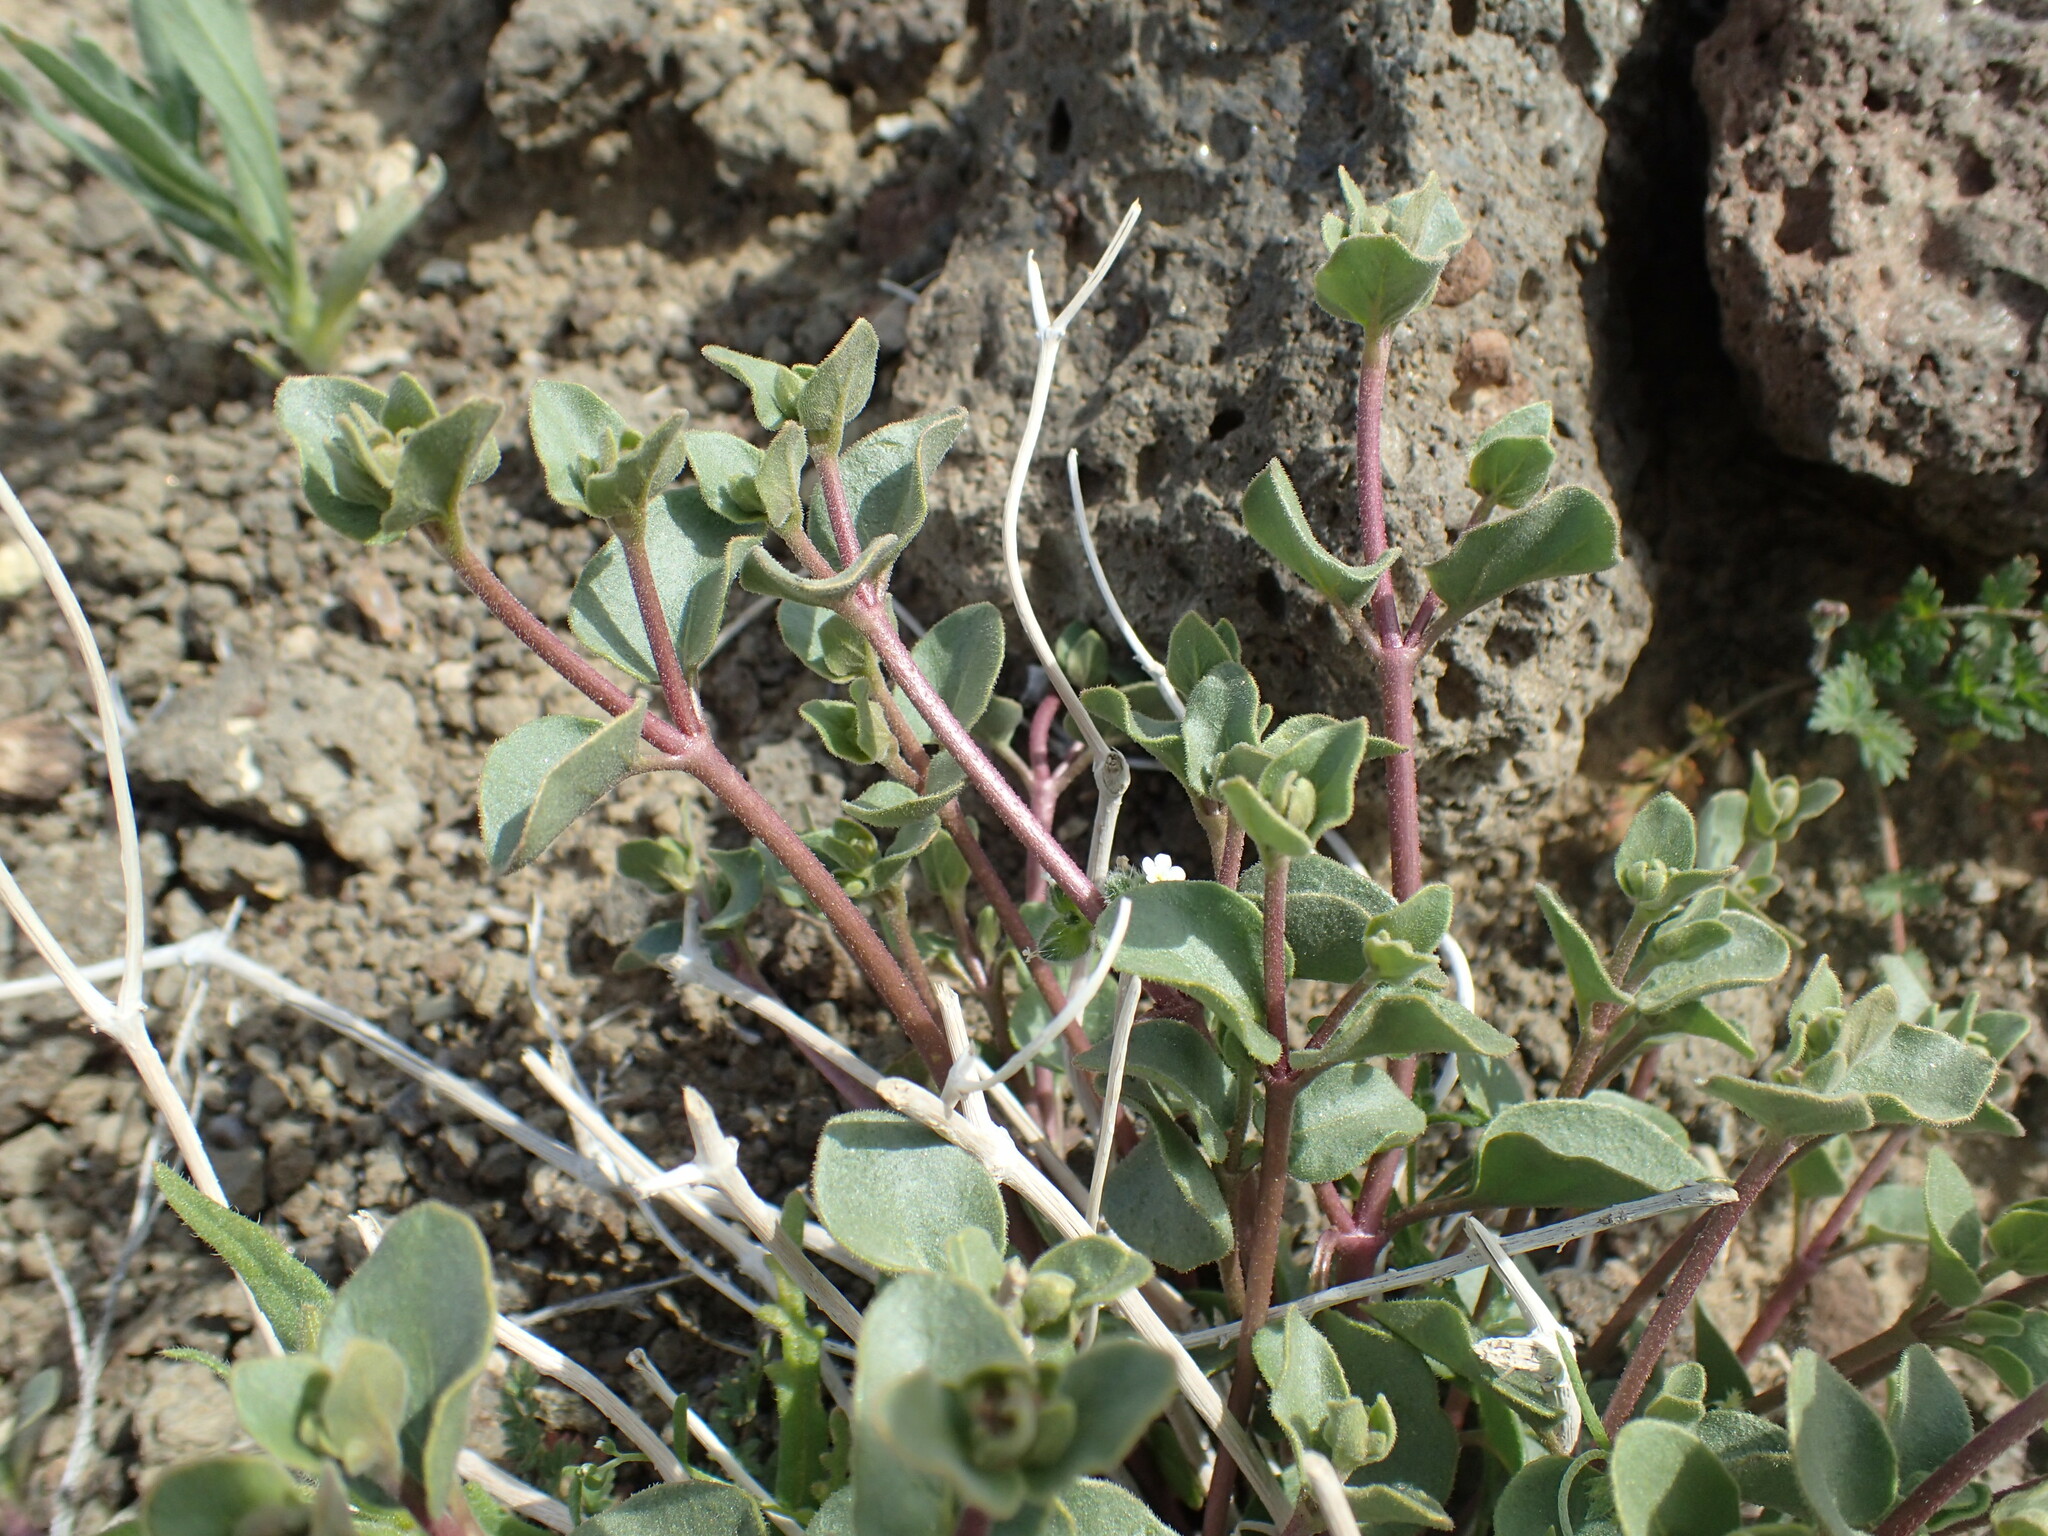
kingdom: Plantae
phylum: Tracheophyta
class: Magnoliopsida
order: Caryophyllales
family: Nyctaginaceae
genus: Mirabilis
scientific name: Mirabilis laevis
